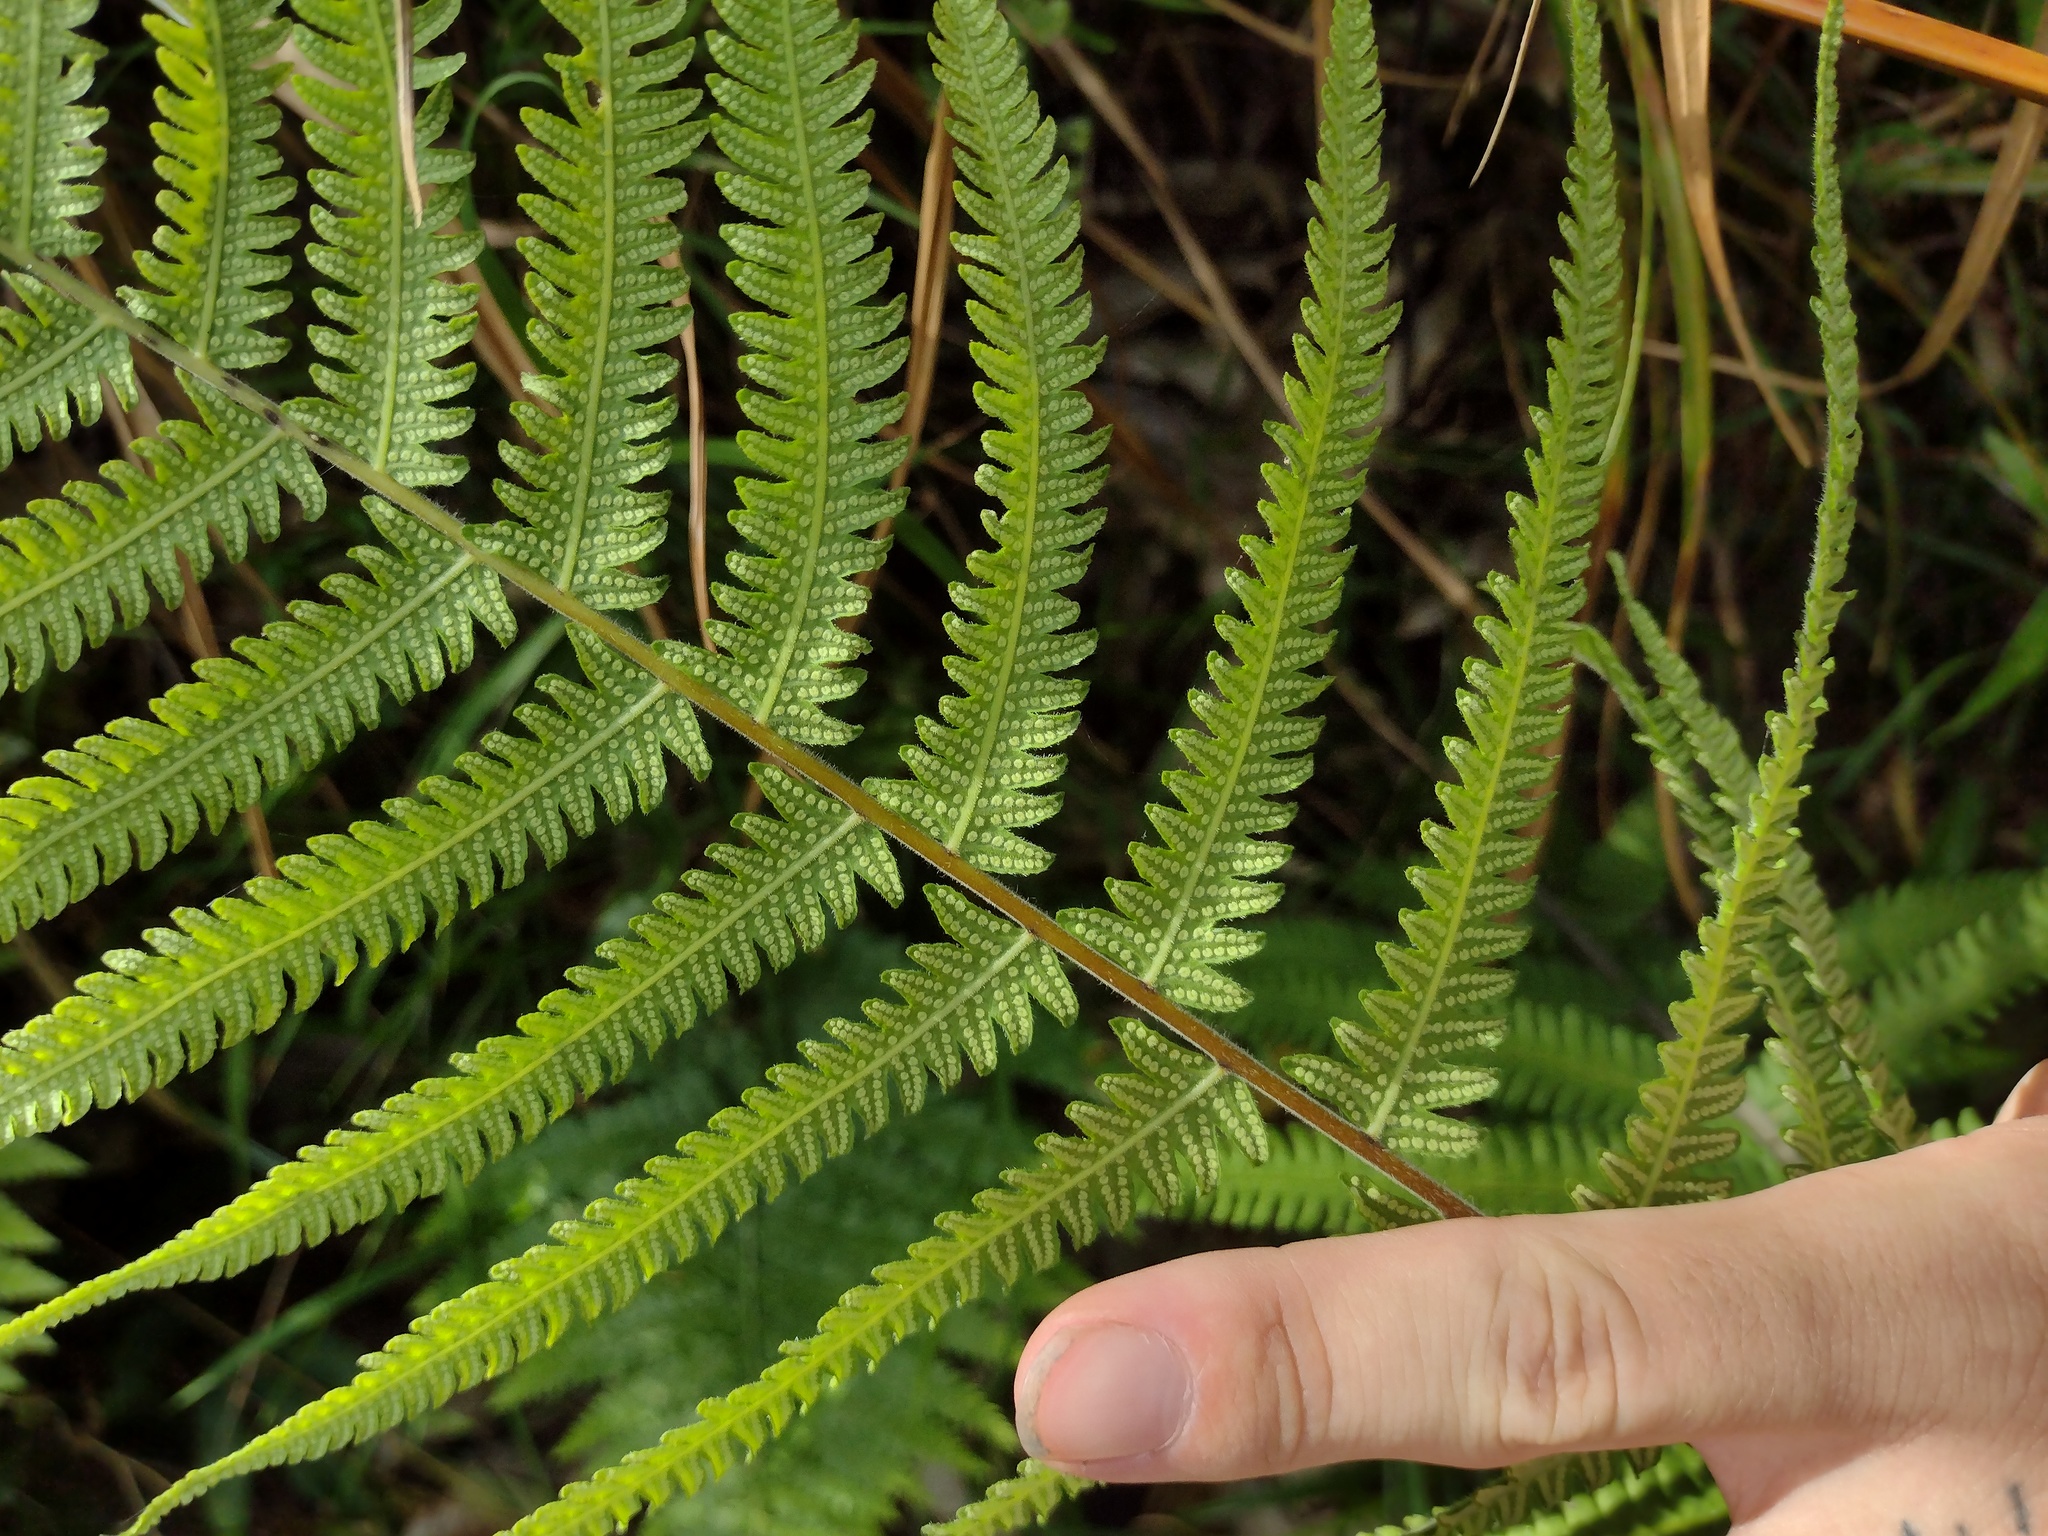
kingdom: Plantae
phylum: Tracheophyta
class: Polypodiopsida
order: Polypodiales
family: Thelypteridaceae
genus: Christella
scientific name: Christella dentata
